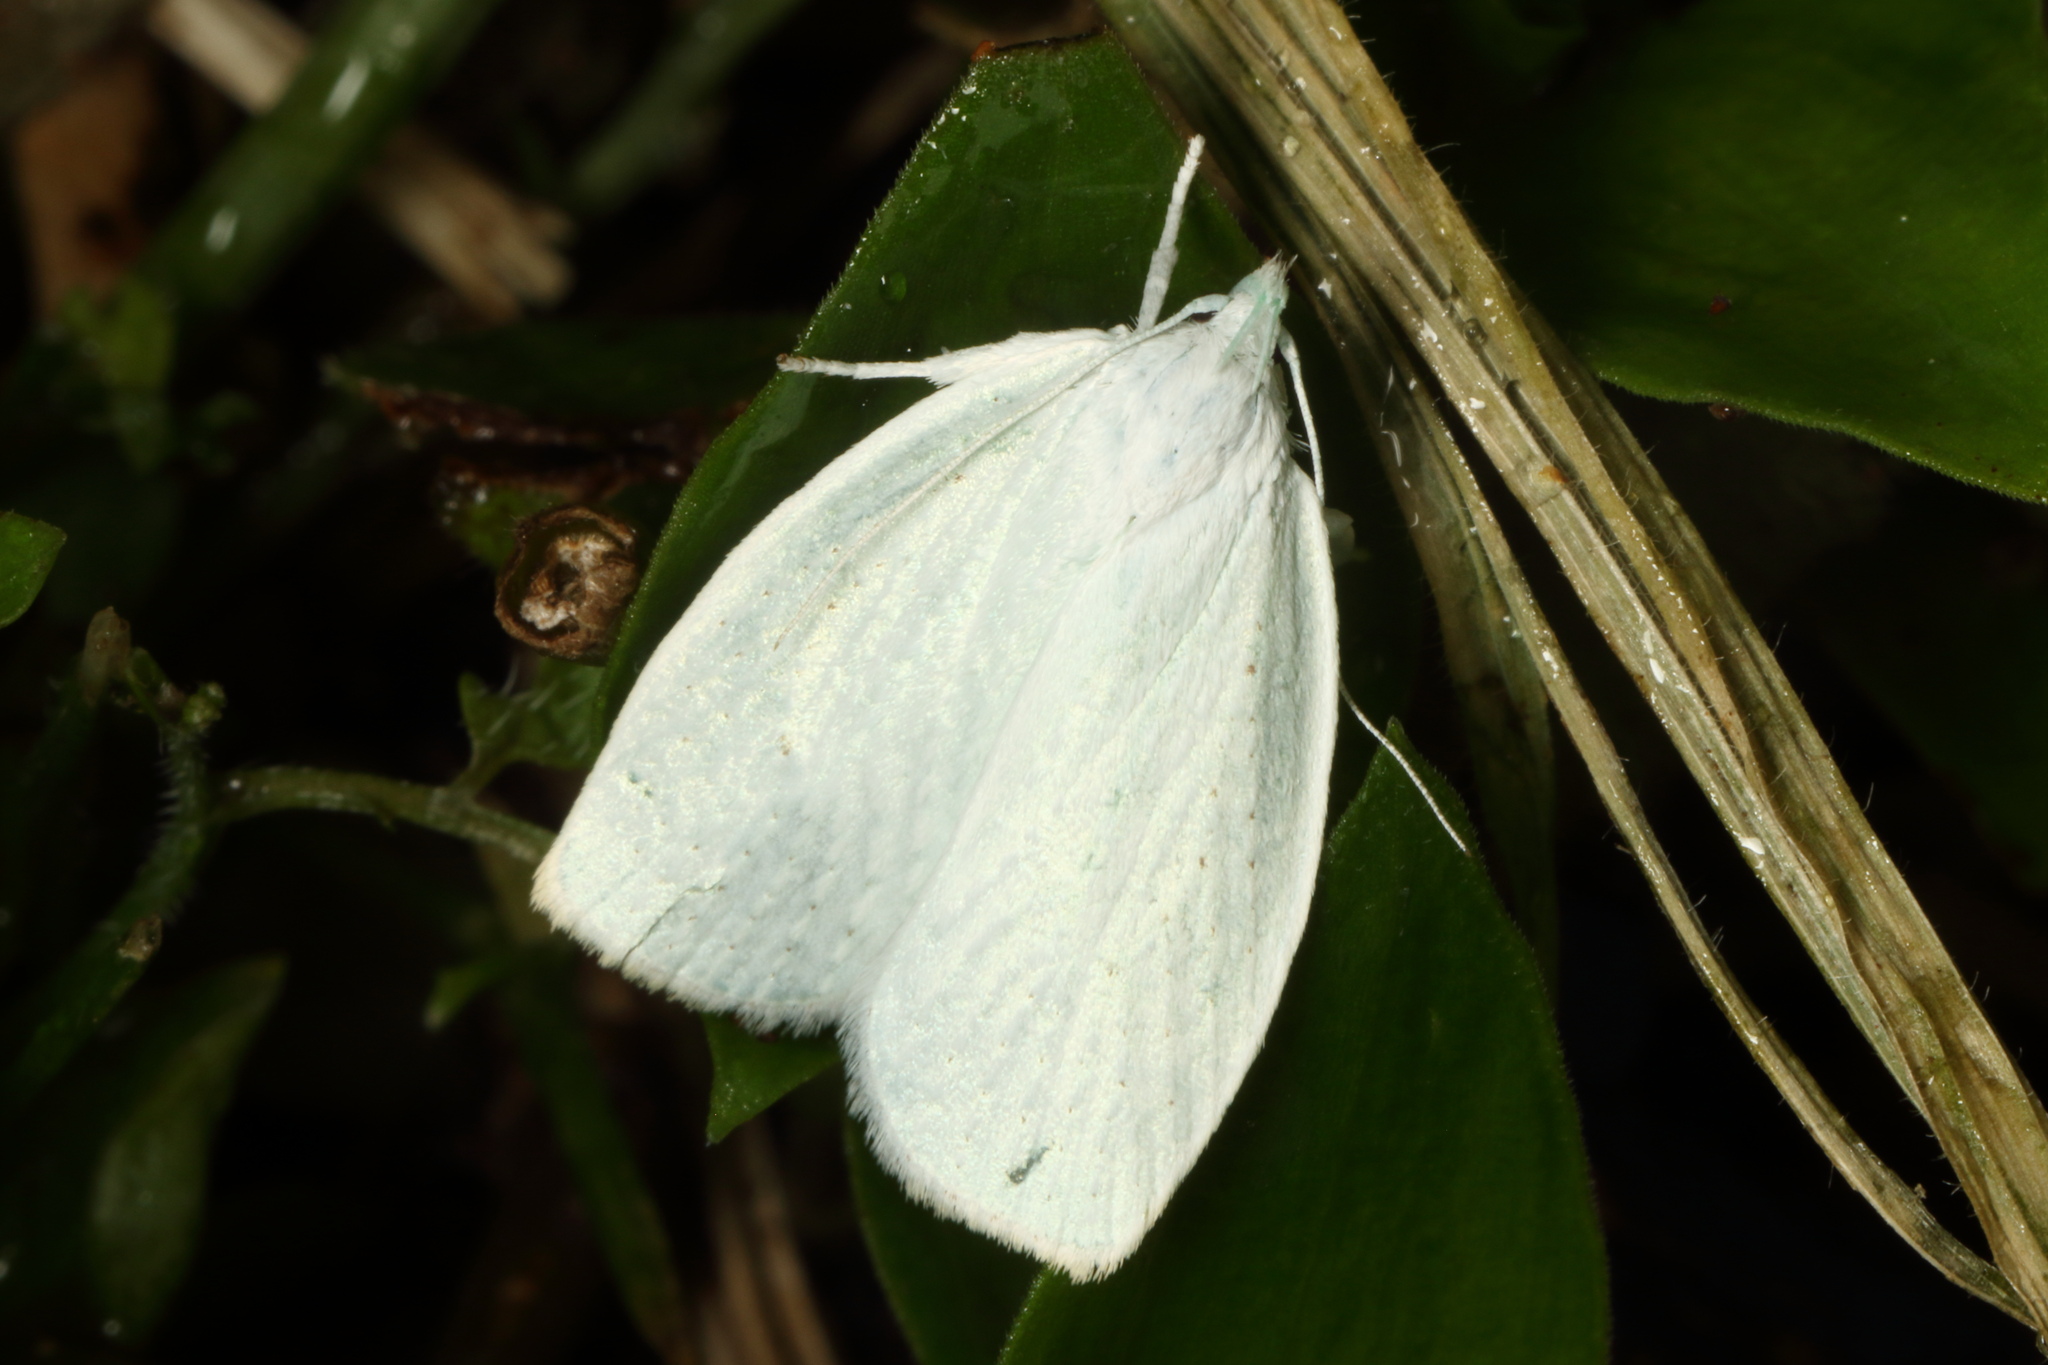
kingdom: Animalia
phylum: Arthropoda
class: Insecta
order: Lepidoptera
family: Oecophoridae
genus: Nymphostola
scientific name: Nymphostola galactina
